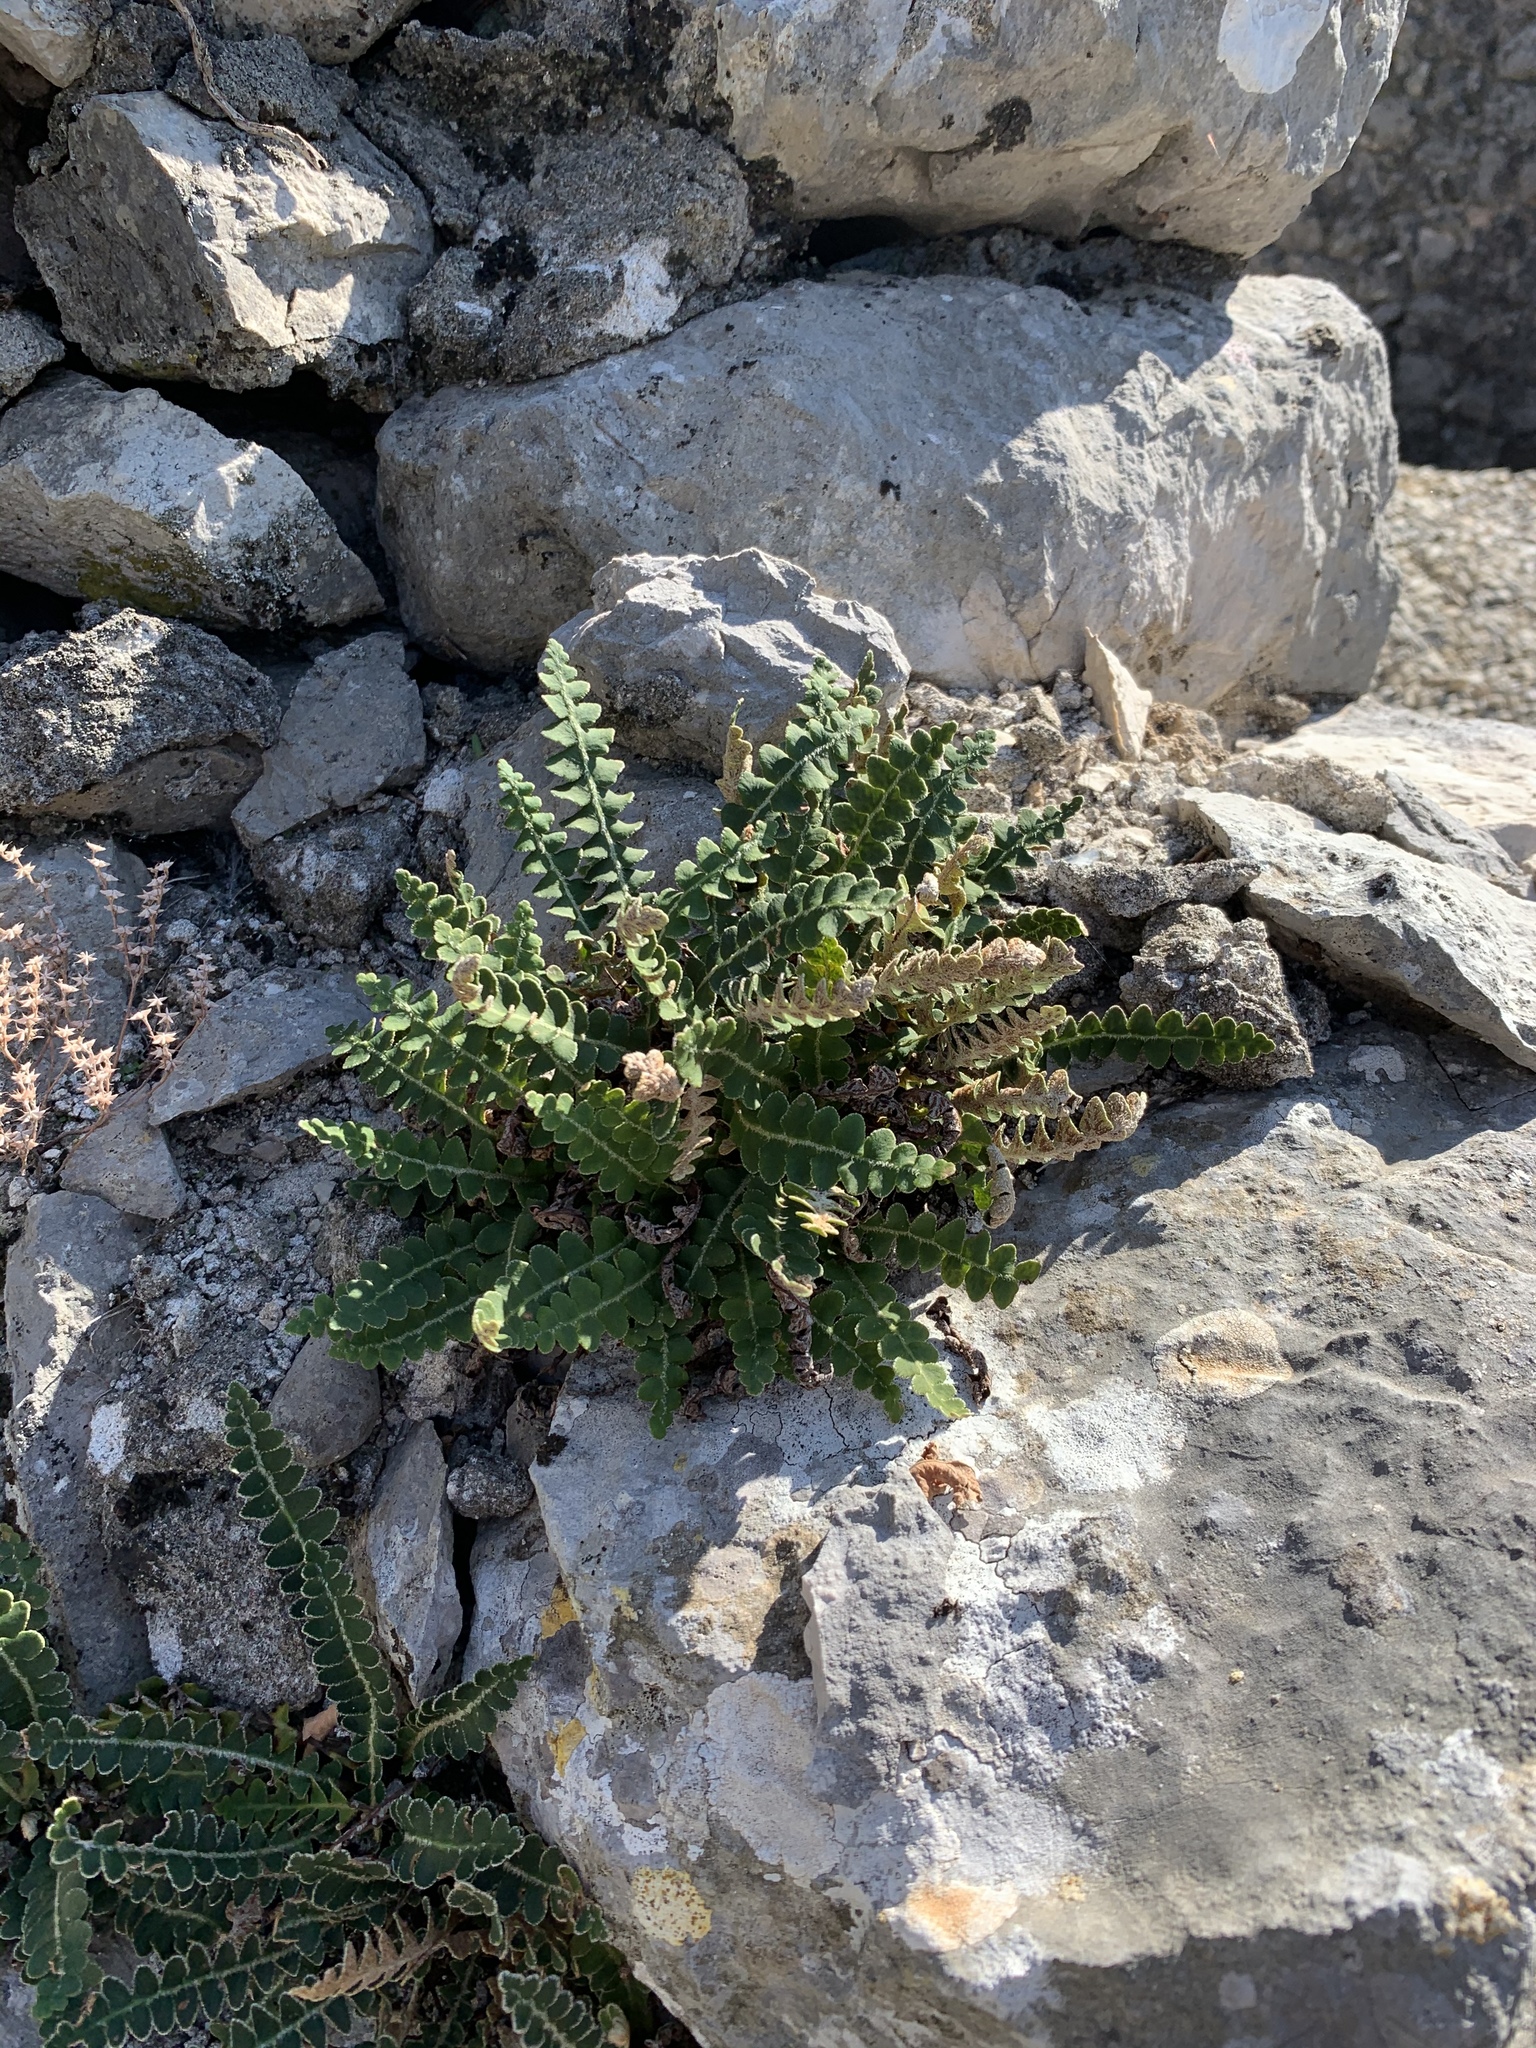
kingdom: Plantae
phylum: Tracheophyta
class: Polypodiopsida
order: Polypodiales
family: Aspleniaceae
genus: Asplenium
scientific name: Asplenium ceterach
